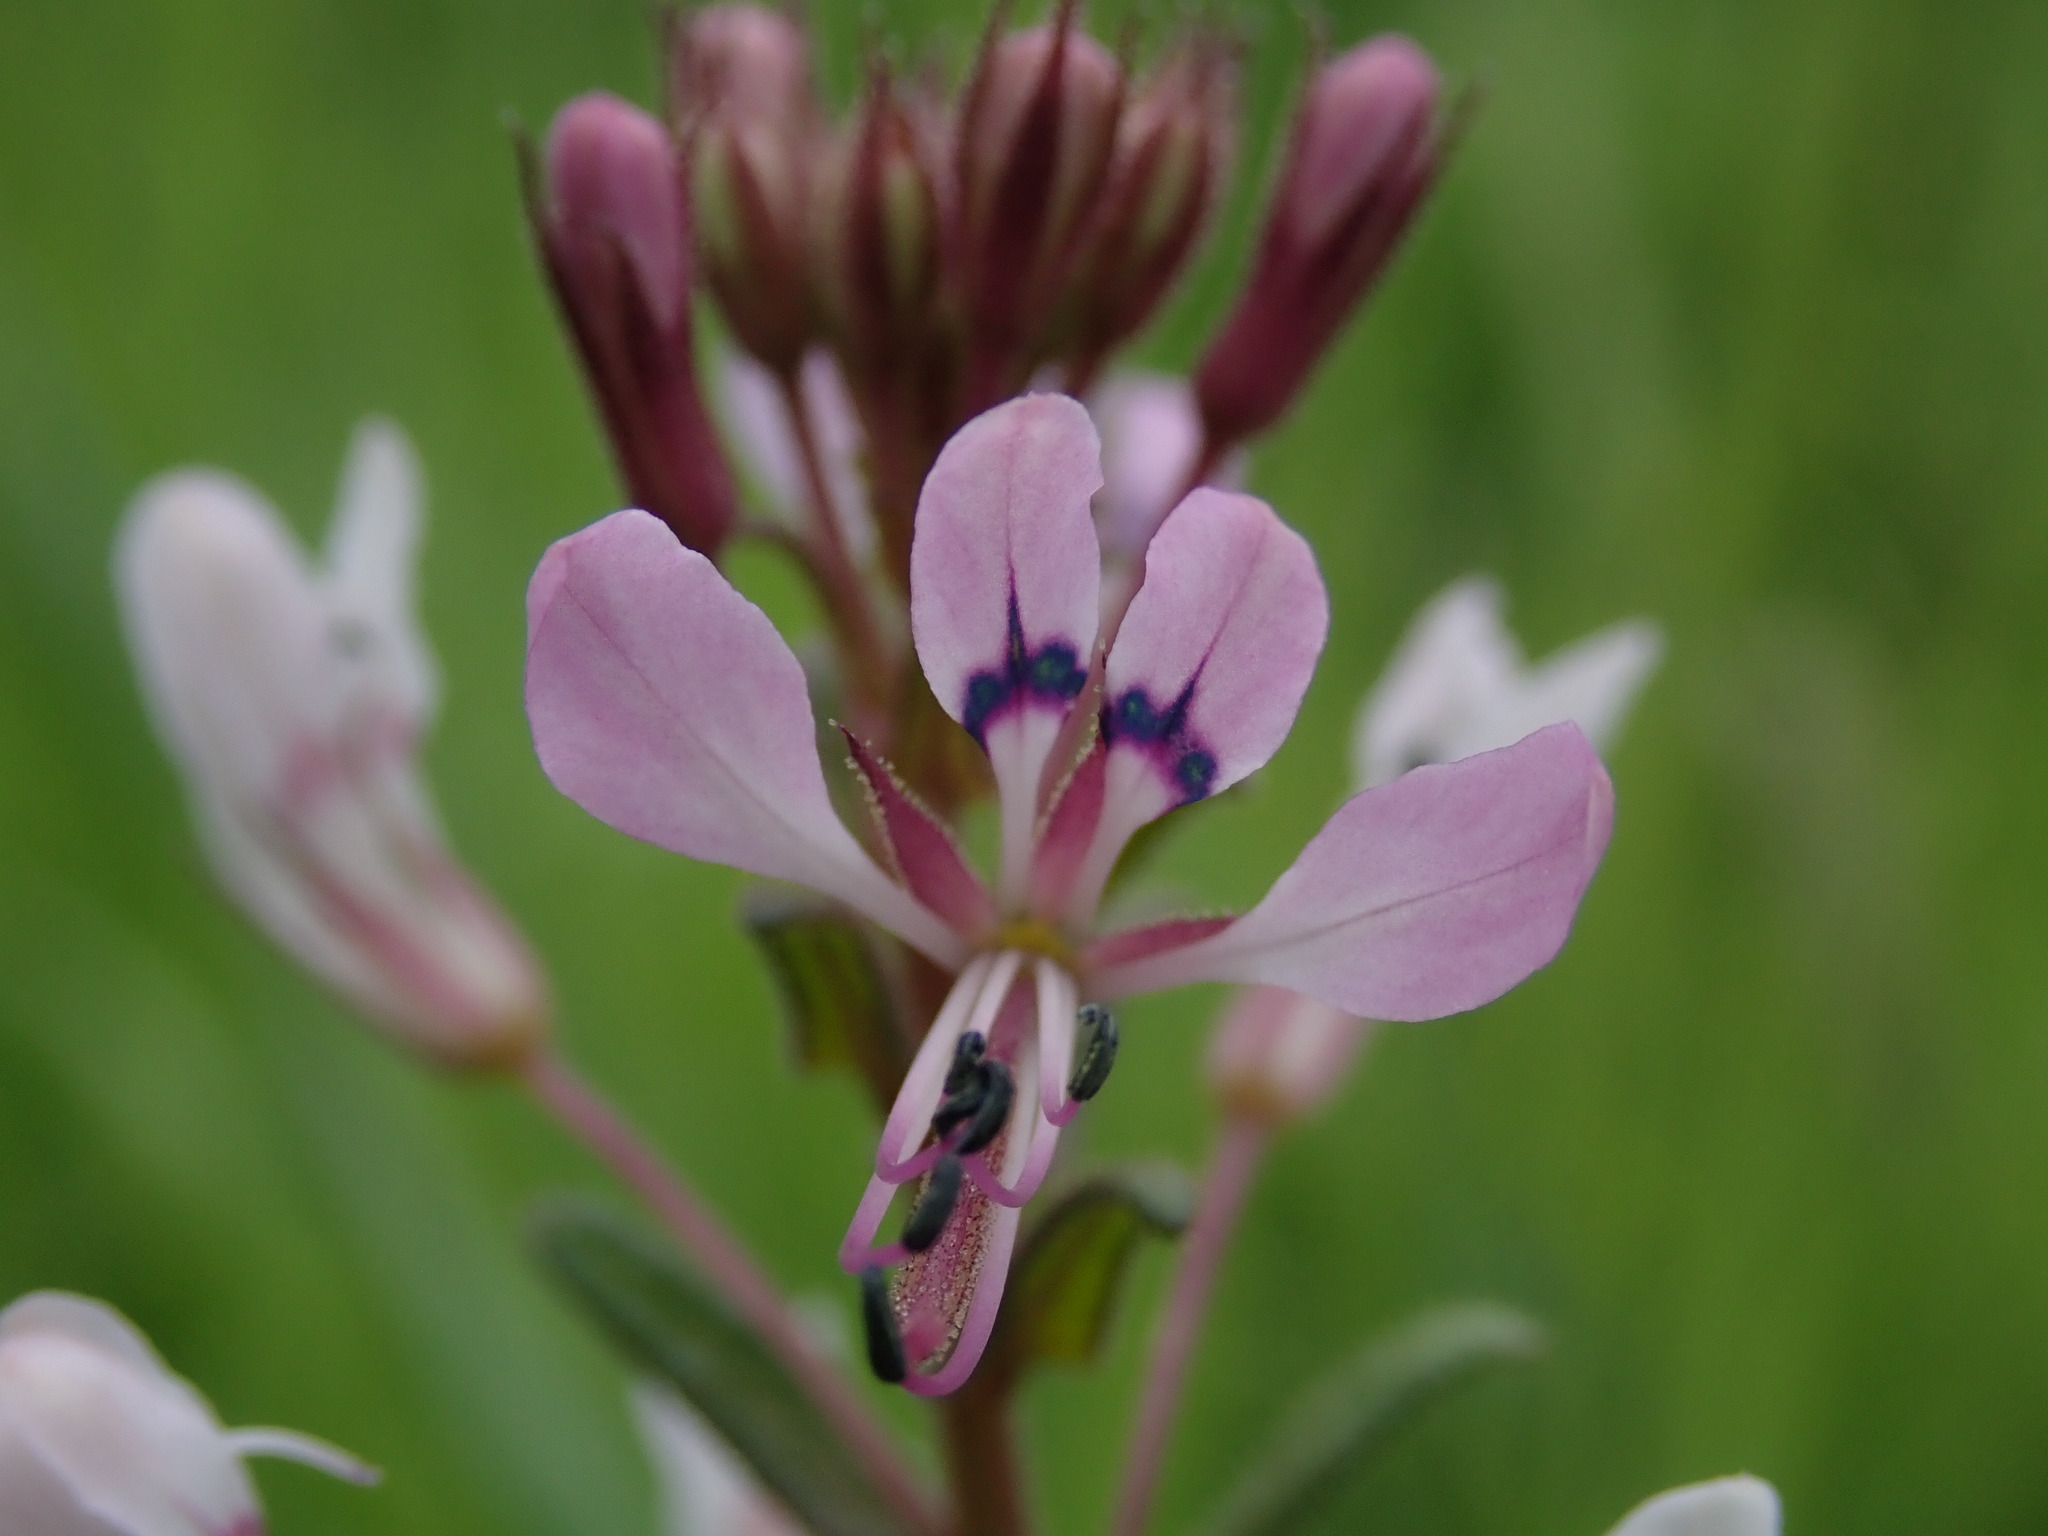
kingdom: Plantae
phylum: Tracheophyta
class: Magnoliopsida
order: Brassicales
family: Cleomaceae
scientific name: Cleomaceae
